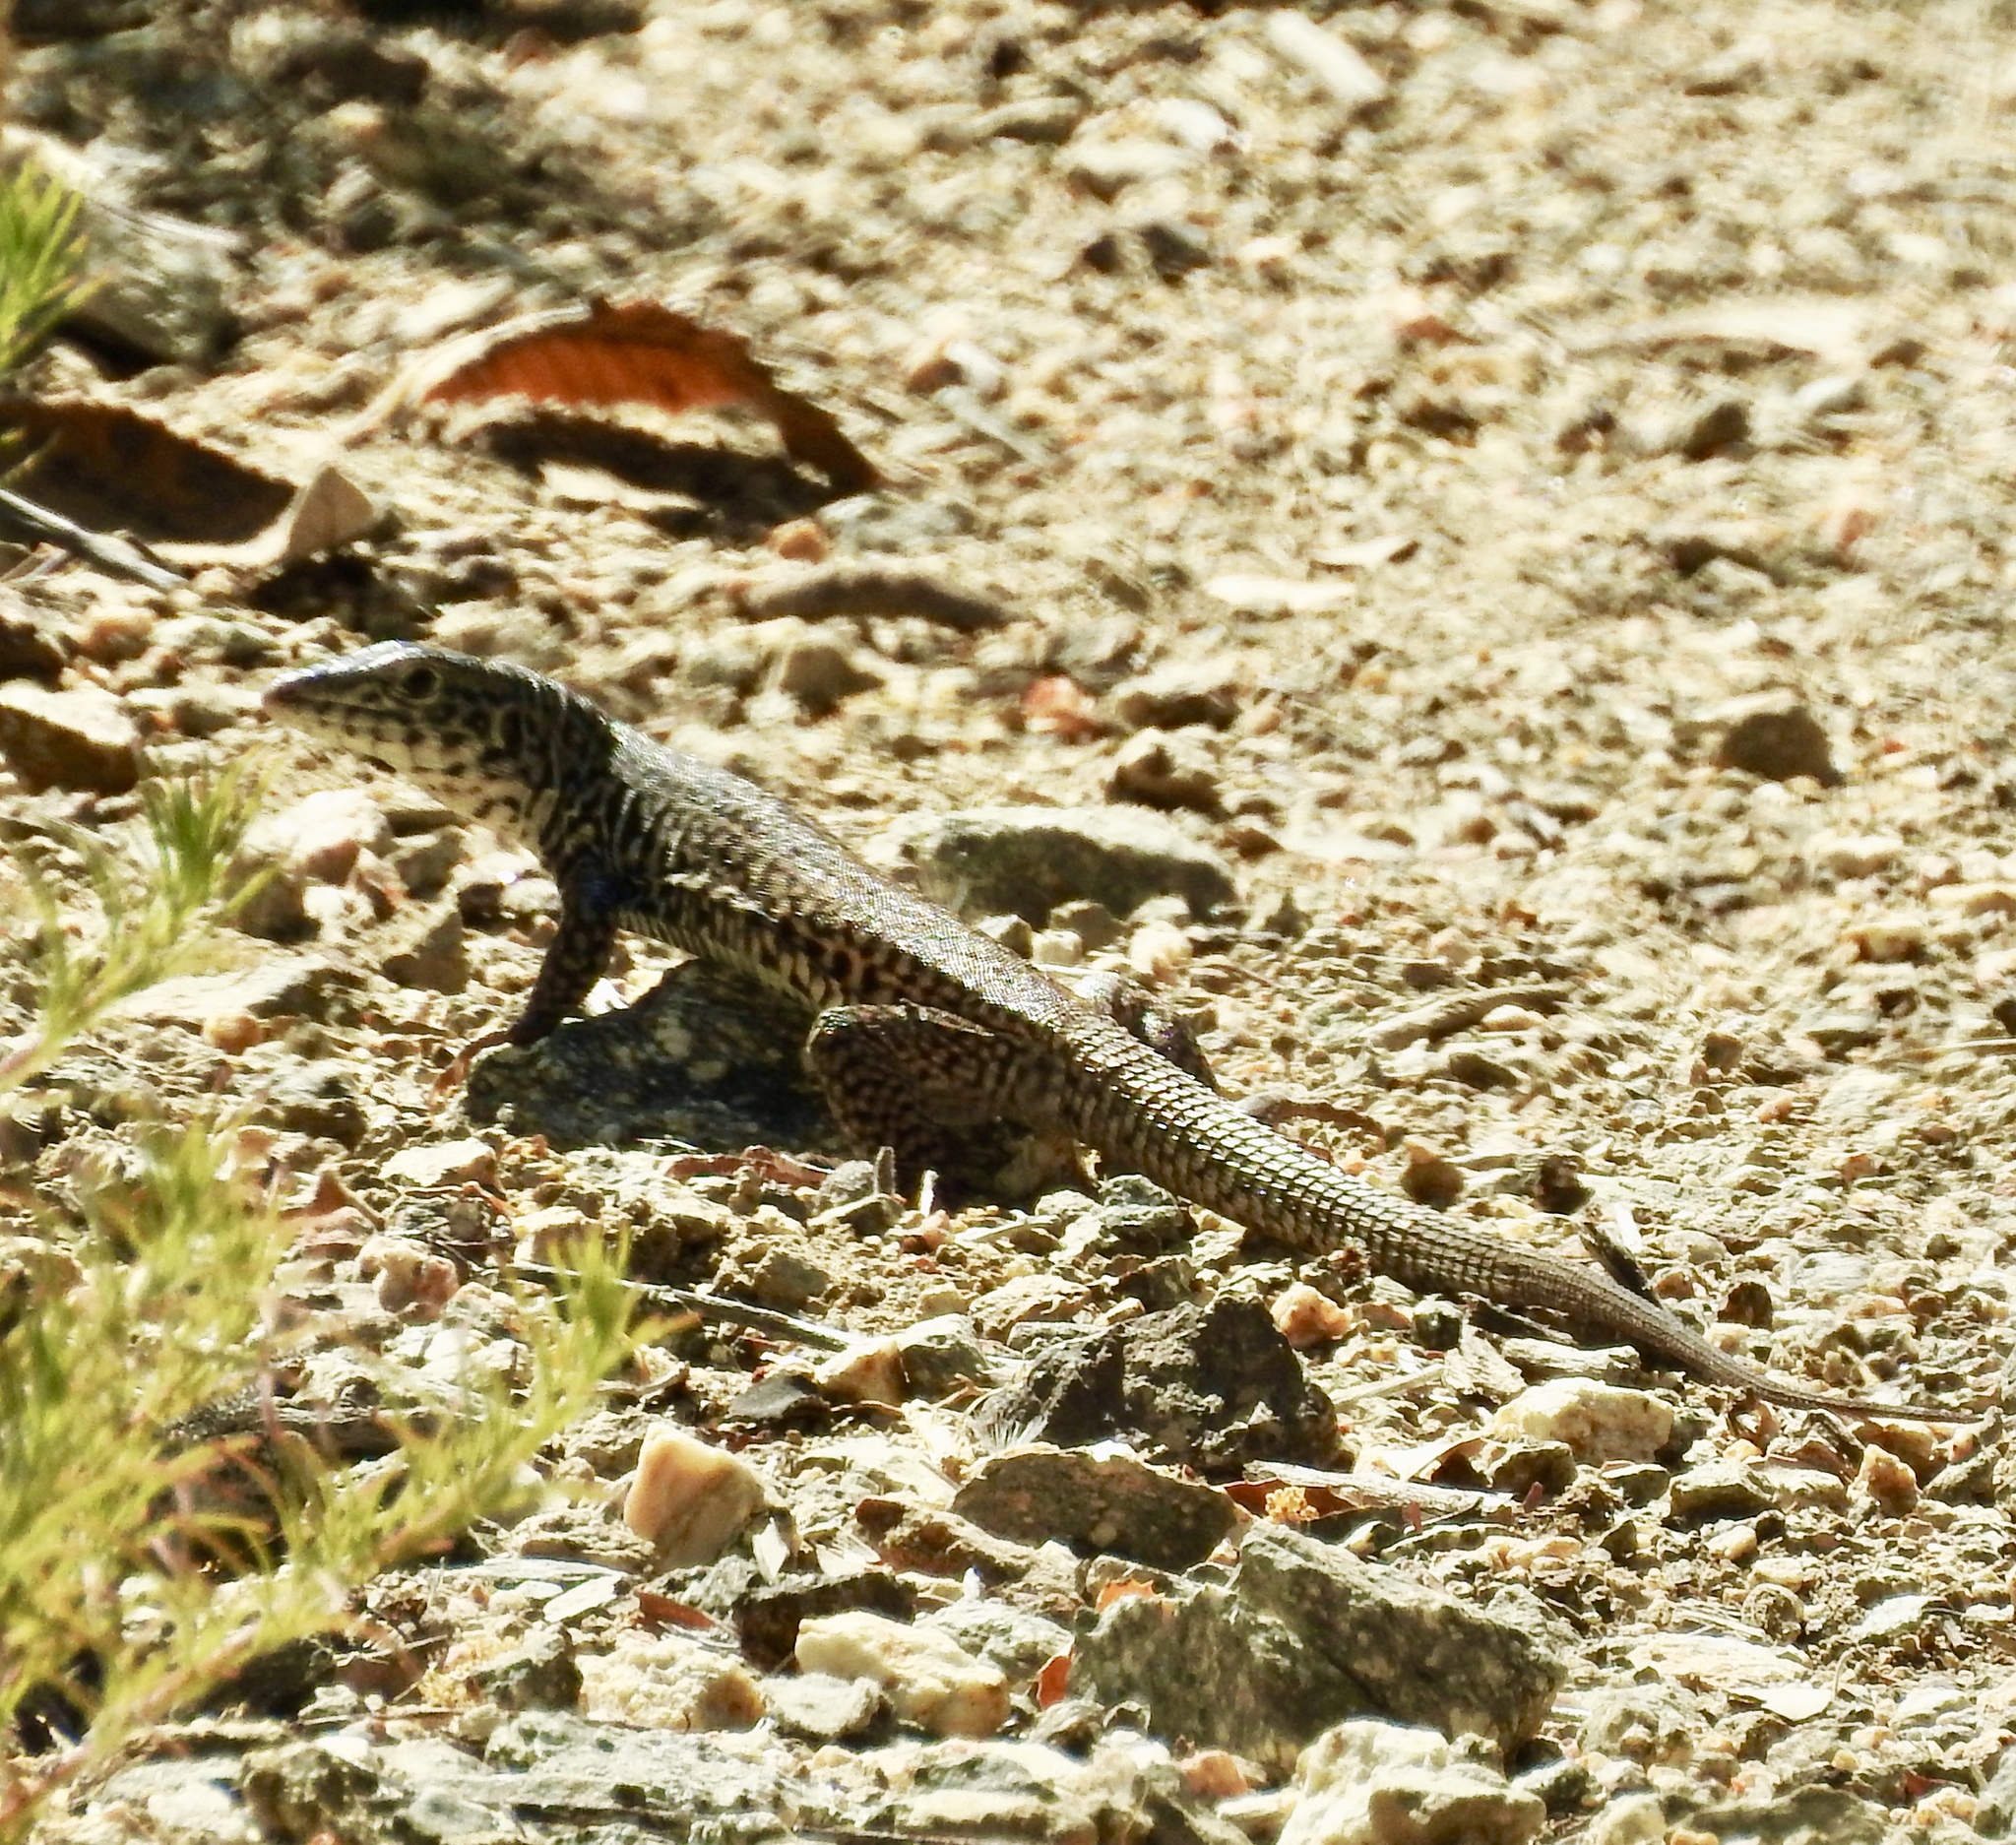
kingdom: Animalia
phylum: Chordata
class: Squamata
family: Teiidae
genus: Aspidoscelis
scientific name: Aspidoscelis tigris
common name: Tiger whiptail
